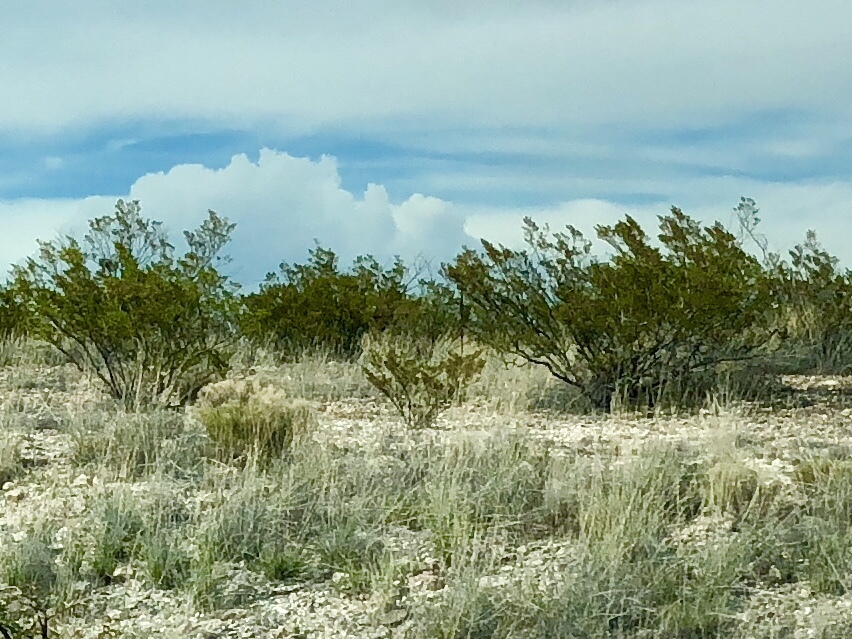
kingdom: Plantae
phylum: Tracheophyta
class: Magnoliopsida
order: Zygophyllales
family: Zygophyllaceae
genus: Larrea
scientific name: Larrea tridentata
